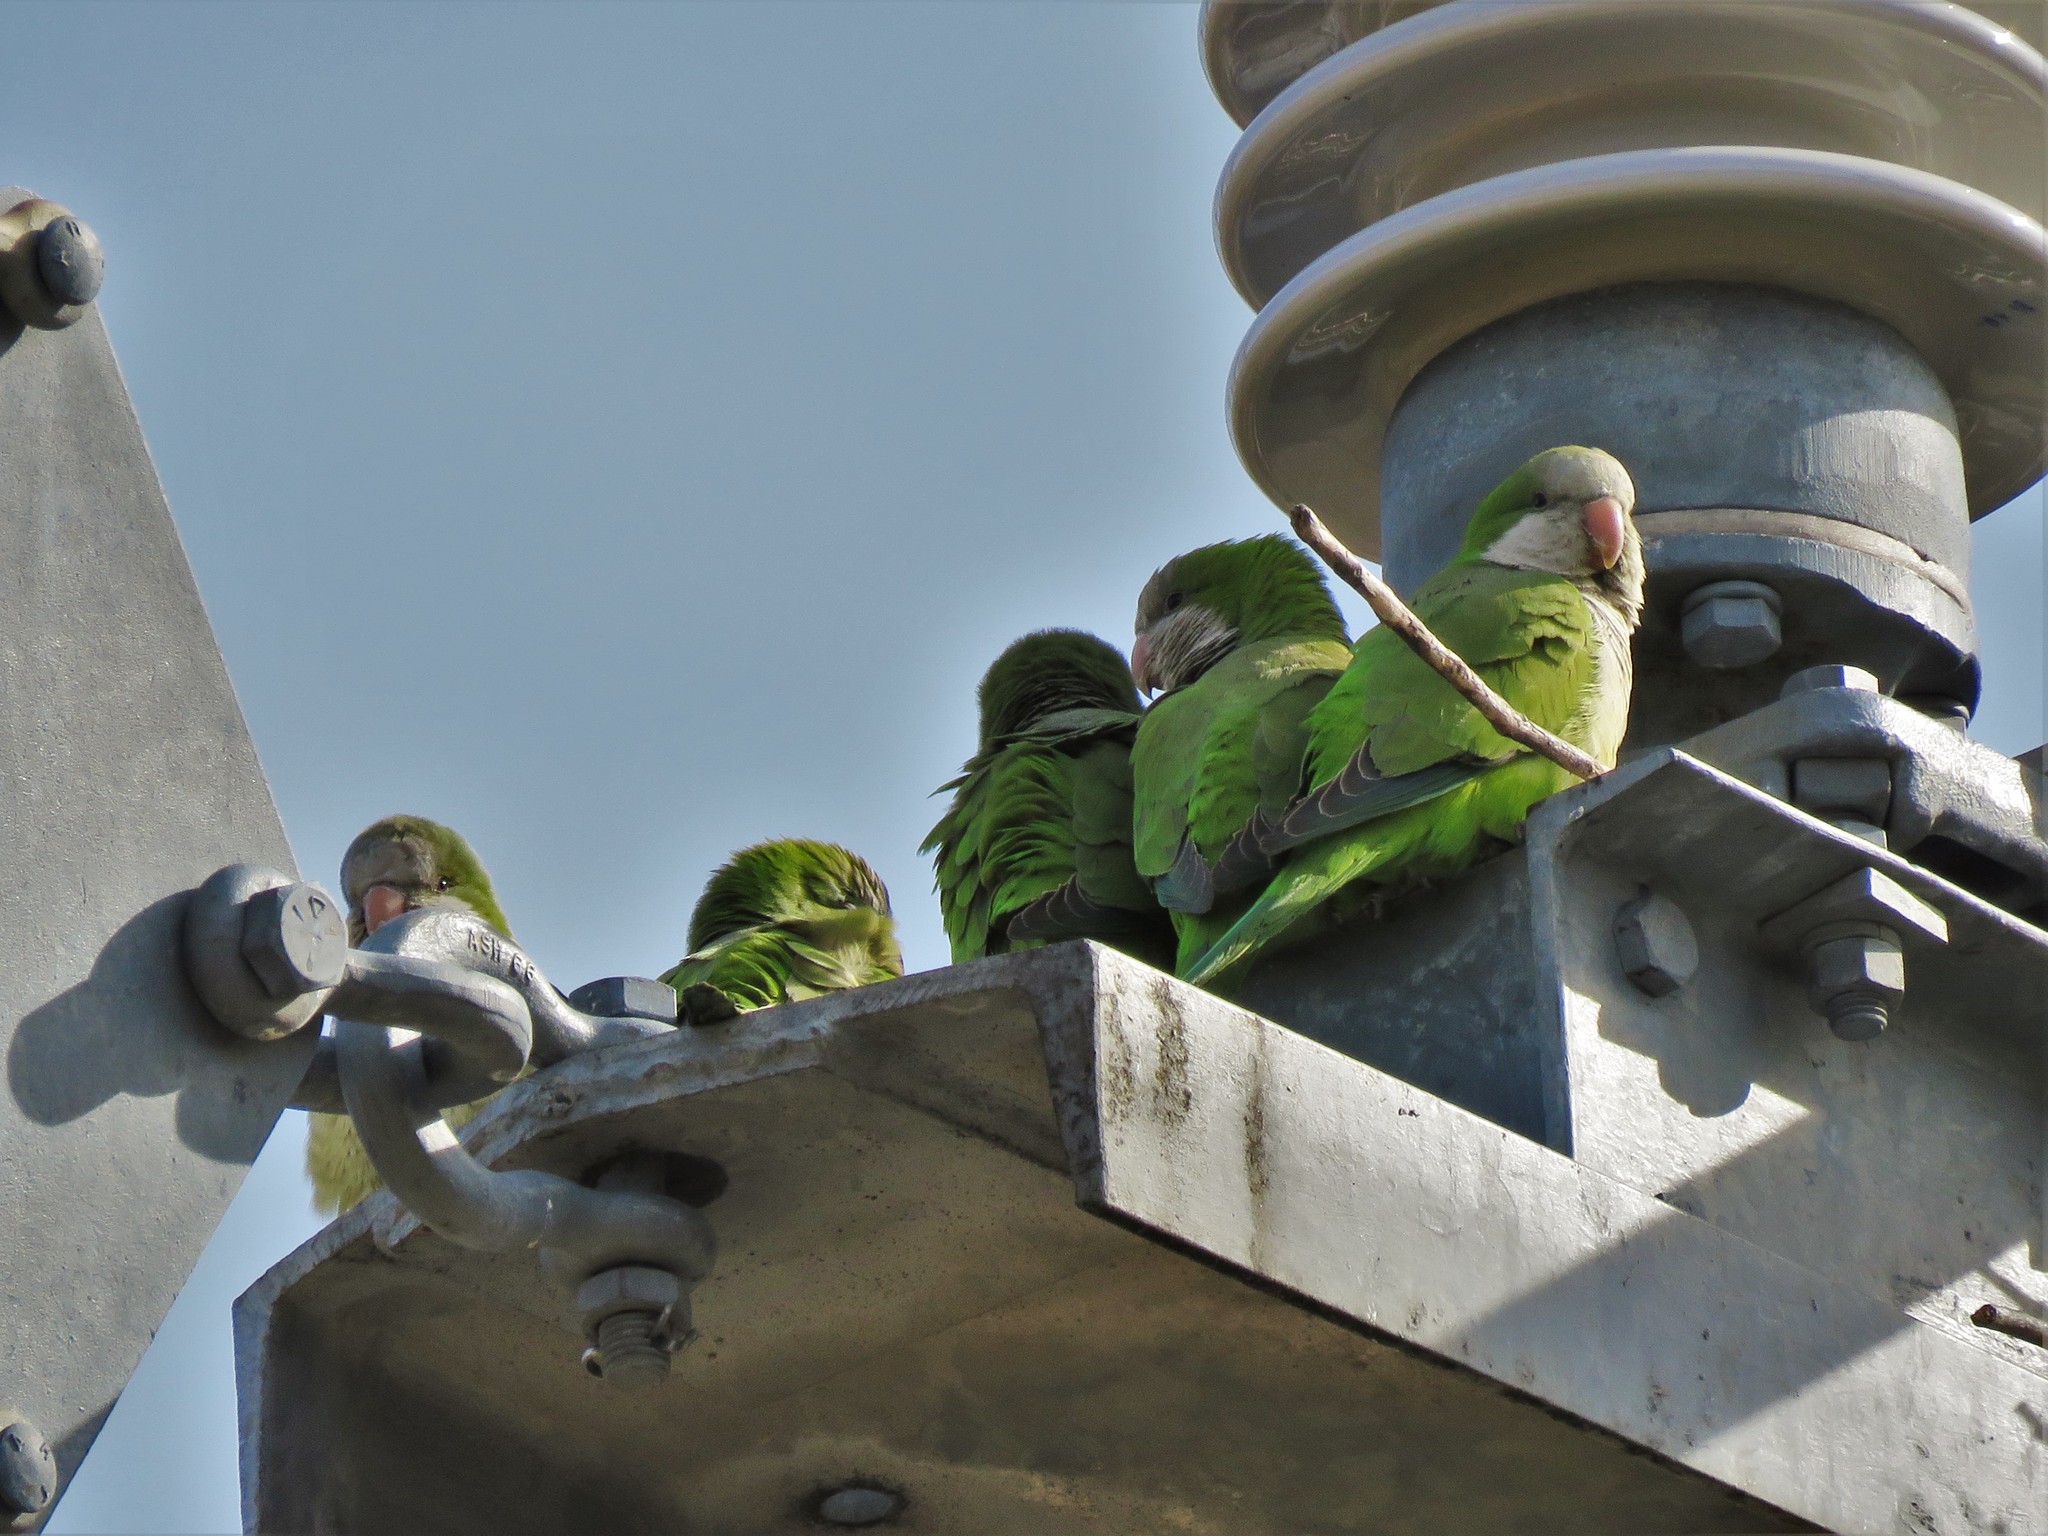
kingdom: Animalia
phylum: Chordata
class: Aves
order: Psittaciformes
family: Psittacidae
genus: Myiopsitta
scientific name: Myiopsitta monachus
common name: Monk parakeet
